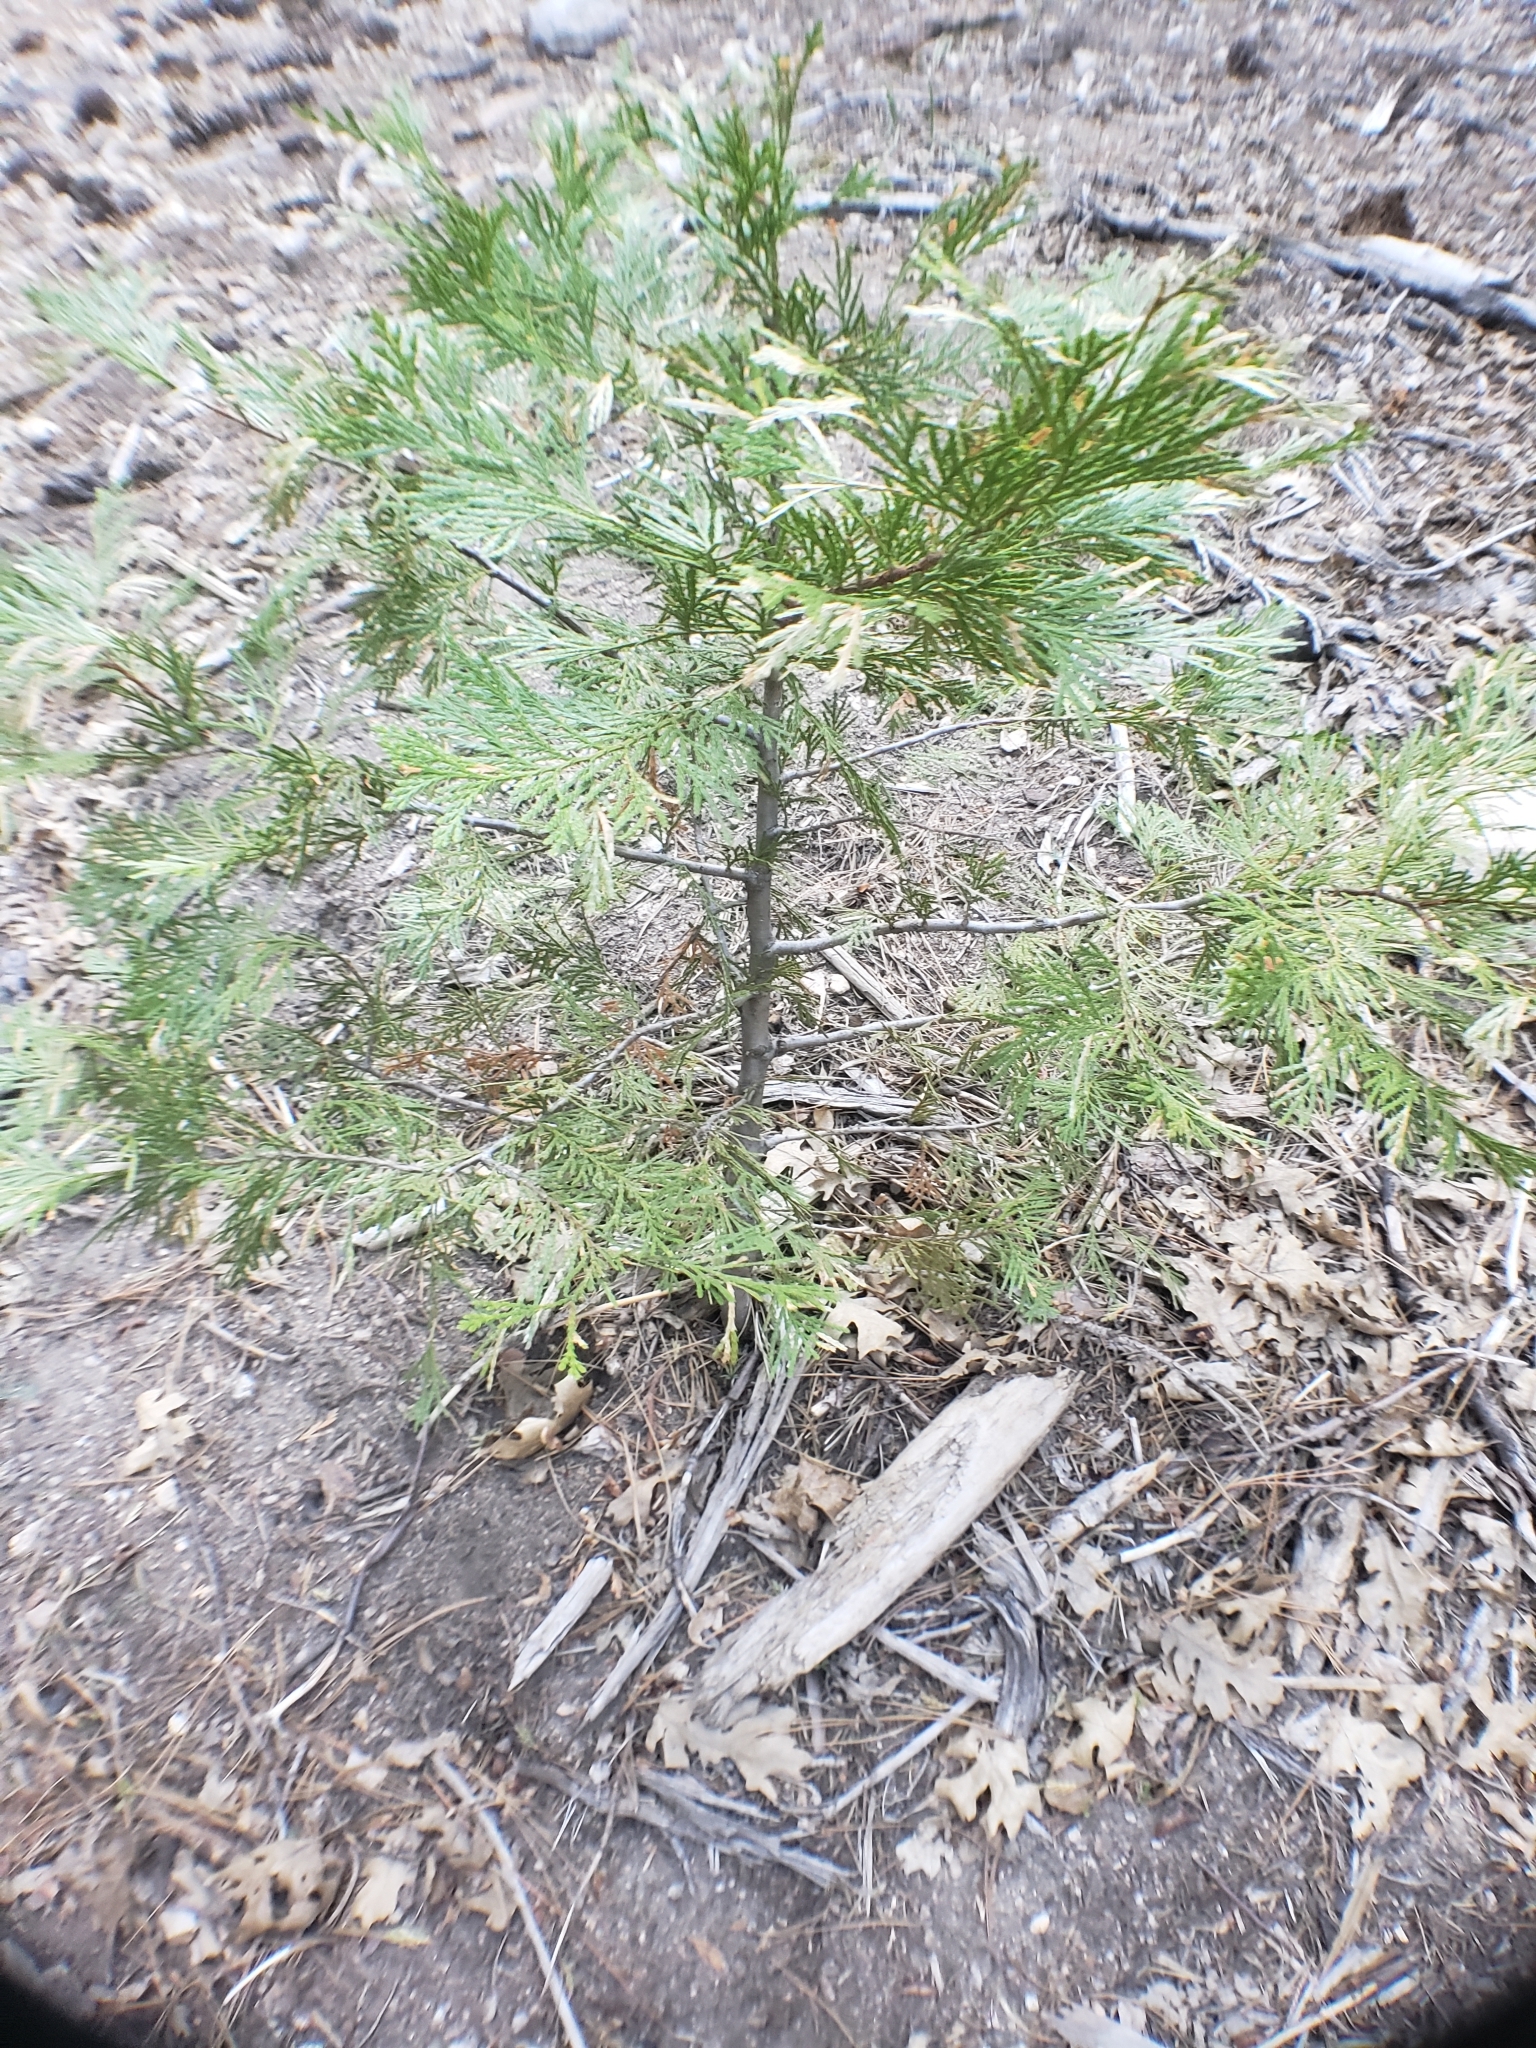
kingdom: Plantae
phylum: Tracheophyta
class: Pinopsida
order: Pinales
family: Cupressaceae
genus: Calocedrus
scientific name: Calocedrus decurrens
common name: Californian incense-cedar
